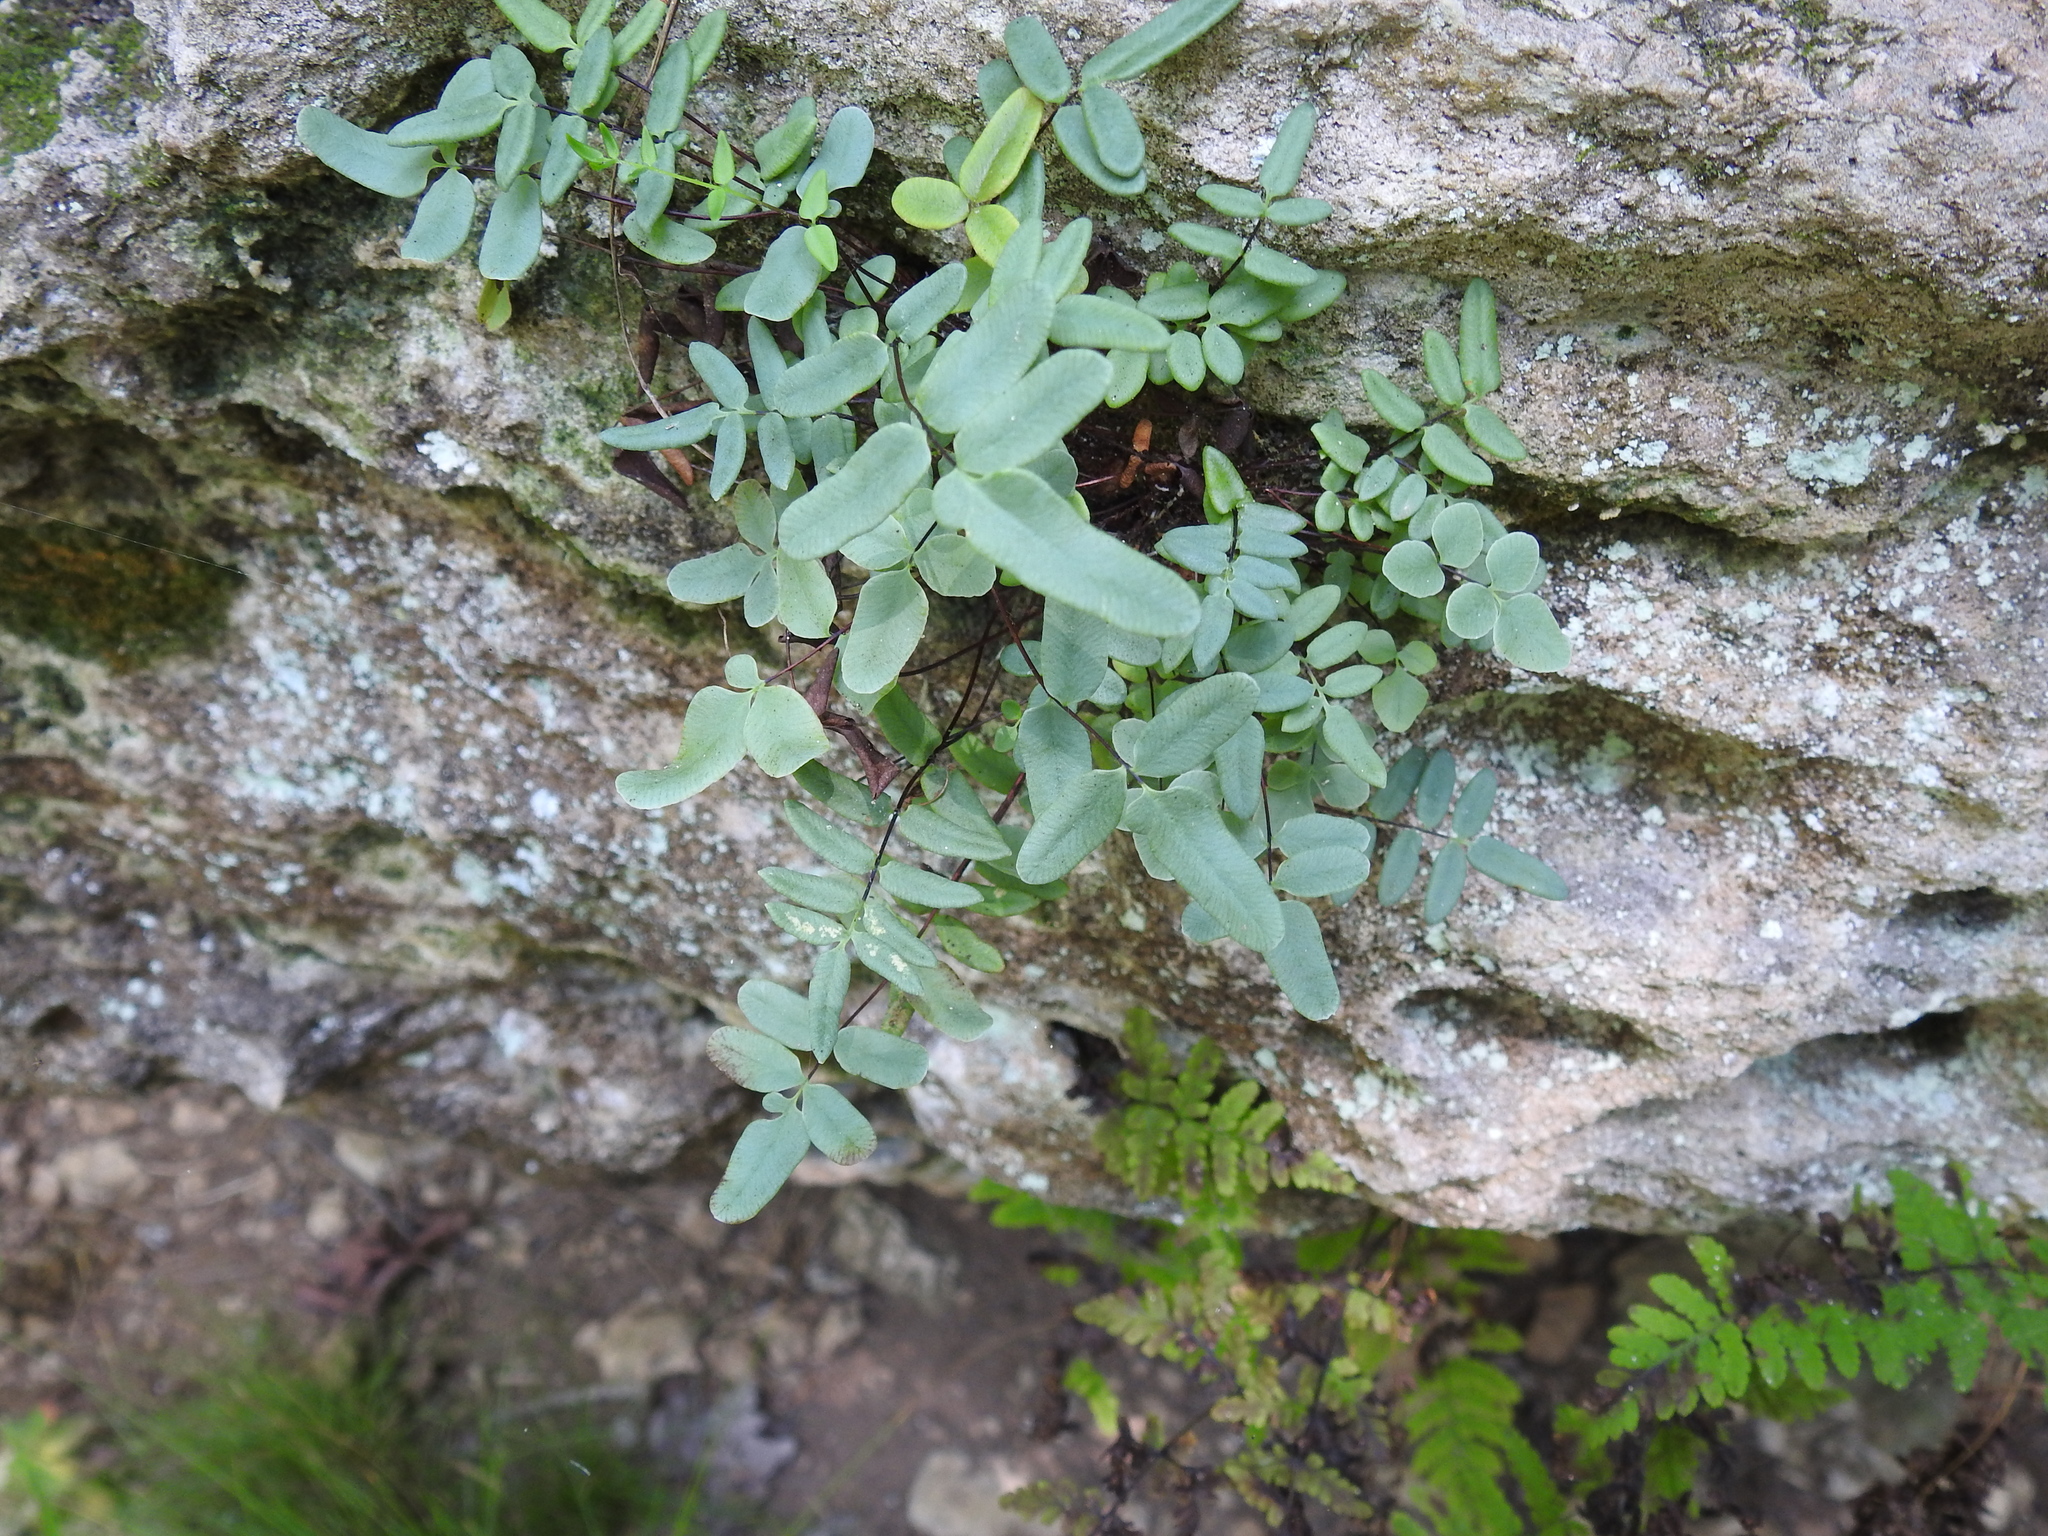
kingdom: Plantae
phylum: Tracheophyta
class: Polypodiopsida
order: Polypodiales
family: Pteridaceae
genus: Pellaea
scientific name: Pellaea glabella
